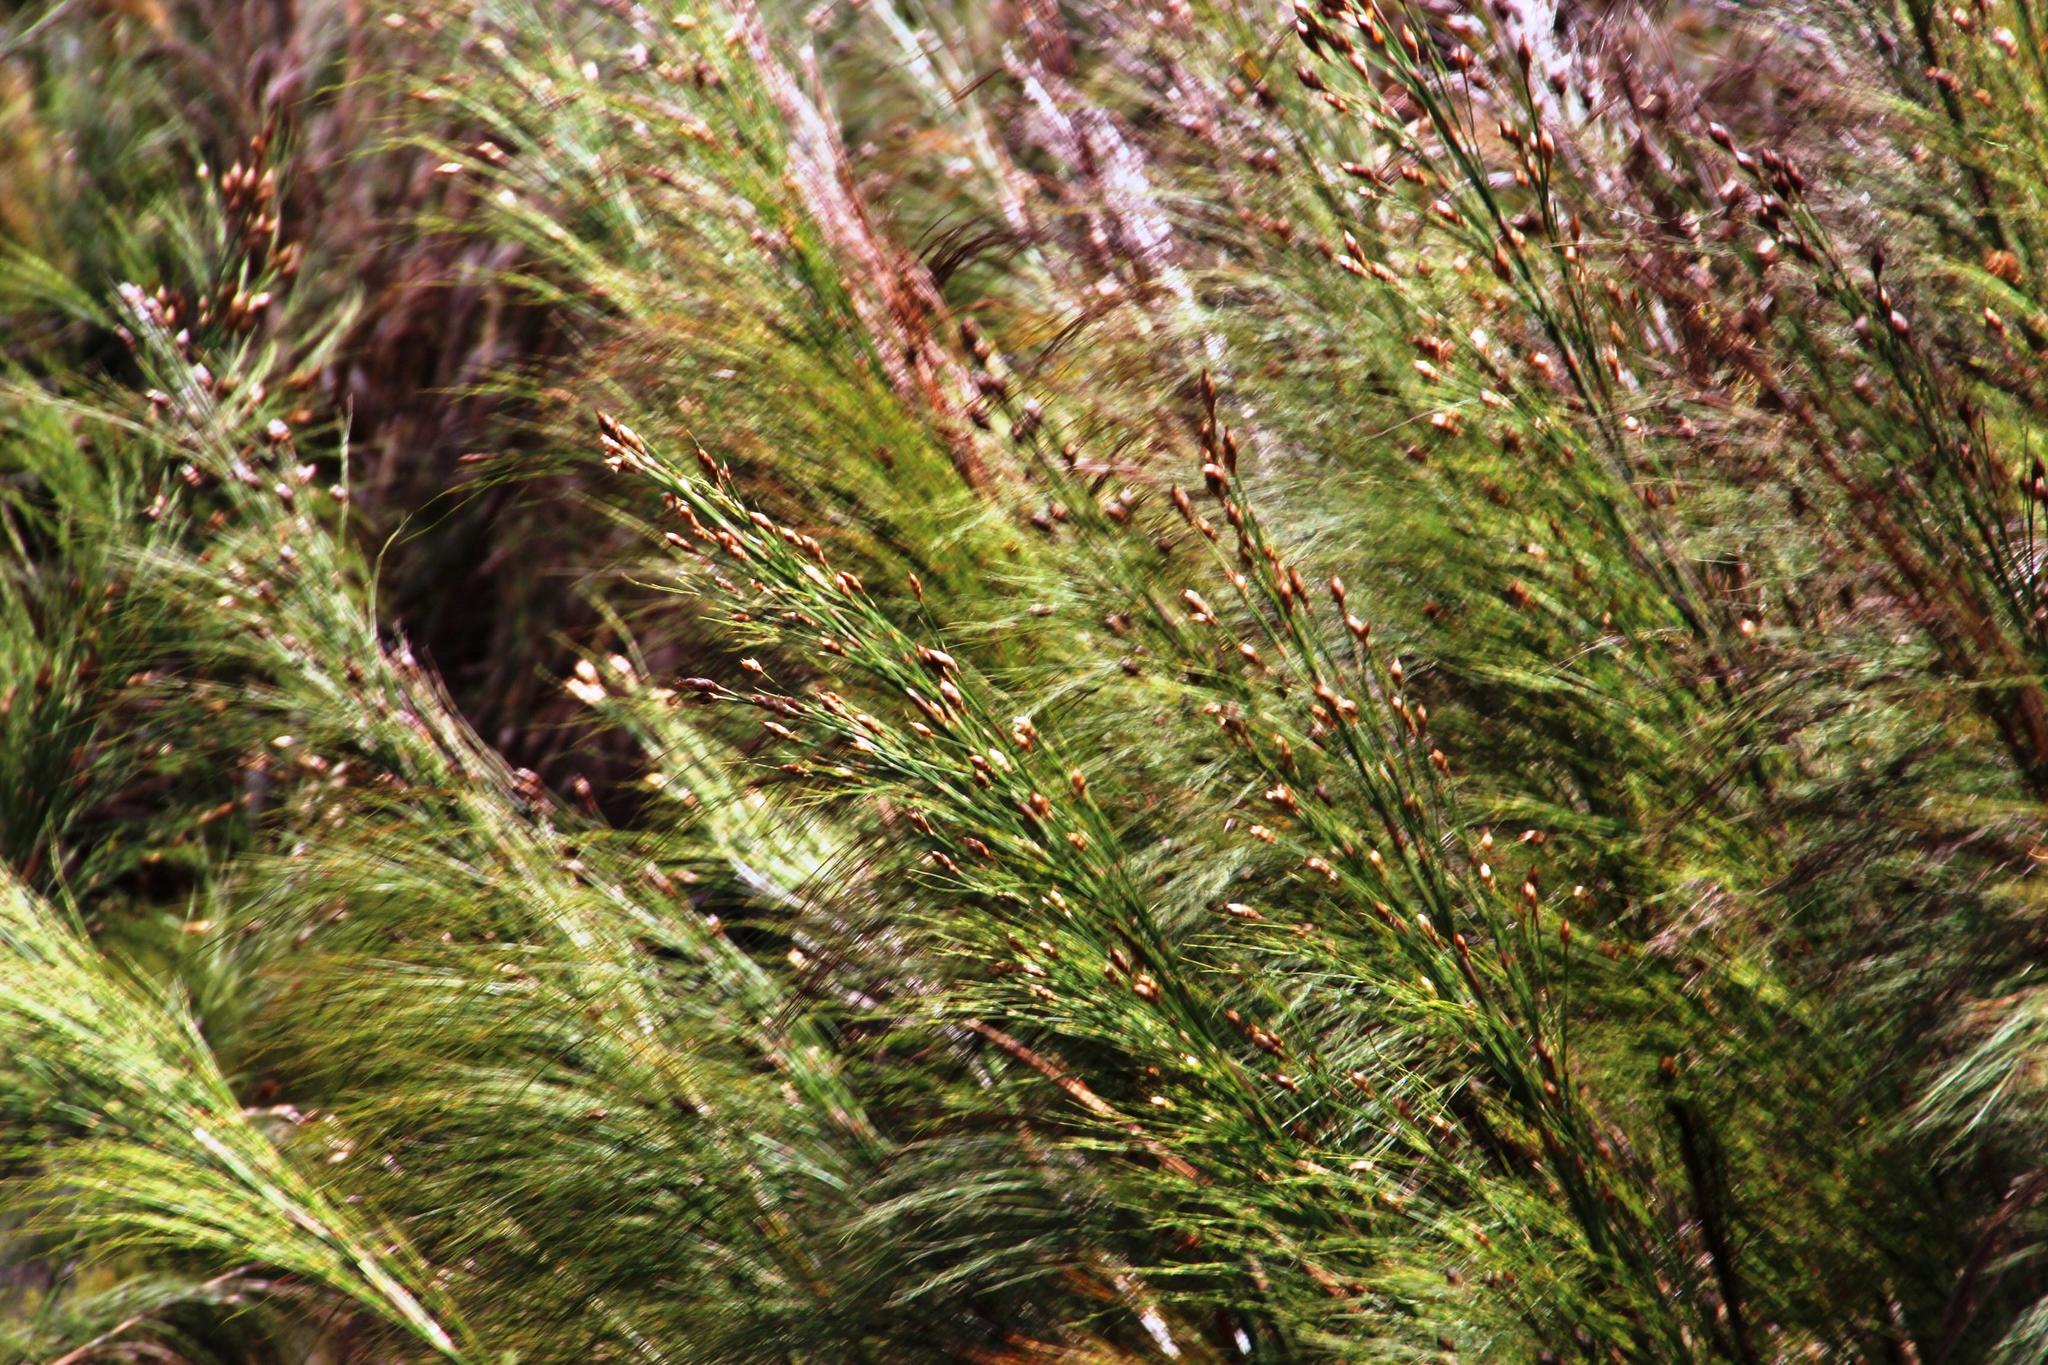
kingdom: Plantae
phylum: Tracheophyta
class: Liliopsida
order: Poales
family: Restionaceae
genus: Cannomois
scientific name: Cannomois grandis
